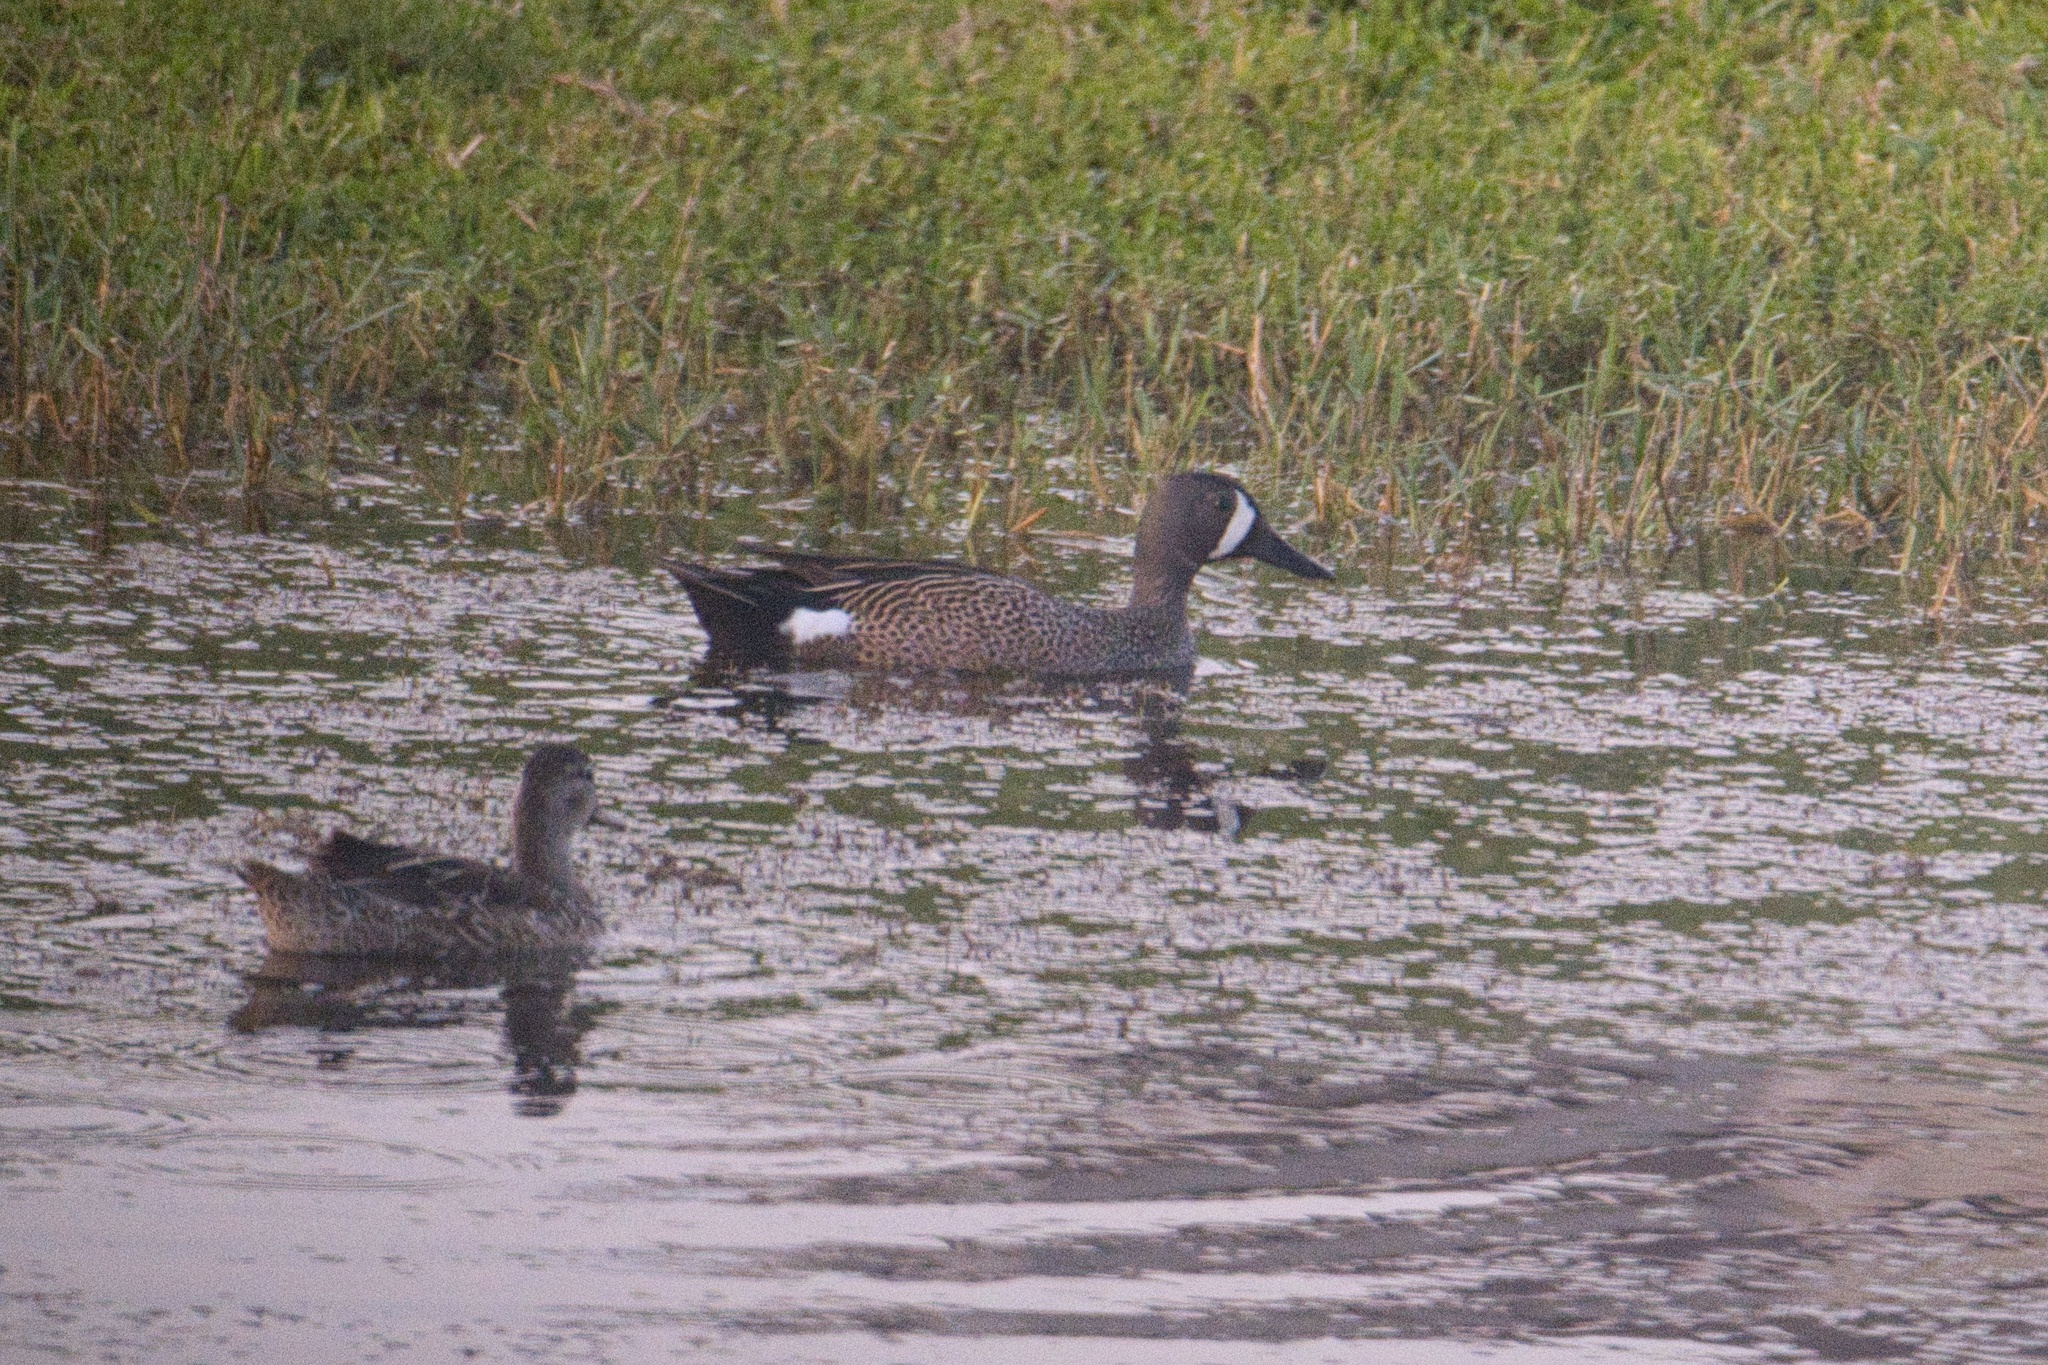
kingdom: Animalia
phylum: Chordata
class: Aves
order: Anseriformes
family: Anatidae
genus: Spatula
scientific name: Spatula discors
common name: Blue-winged teal
